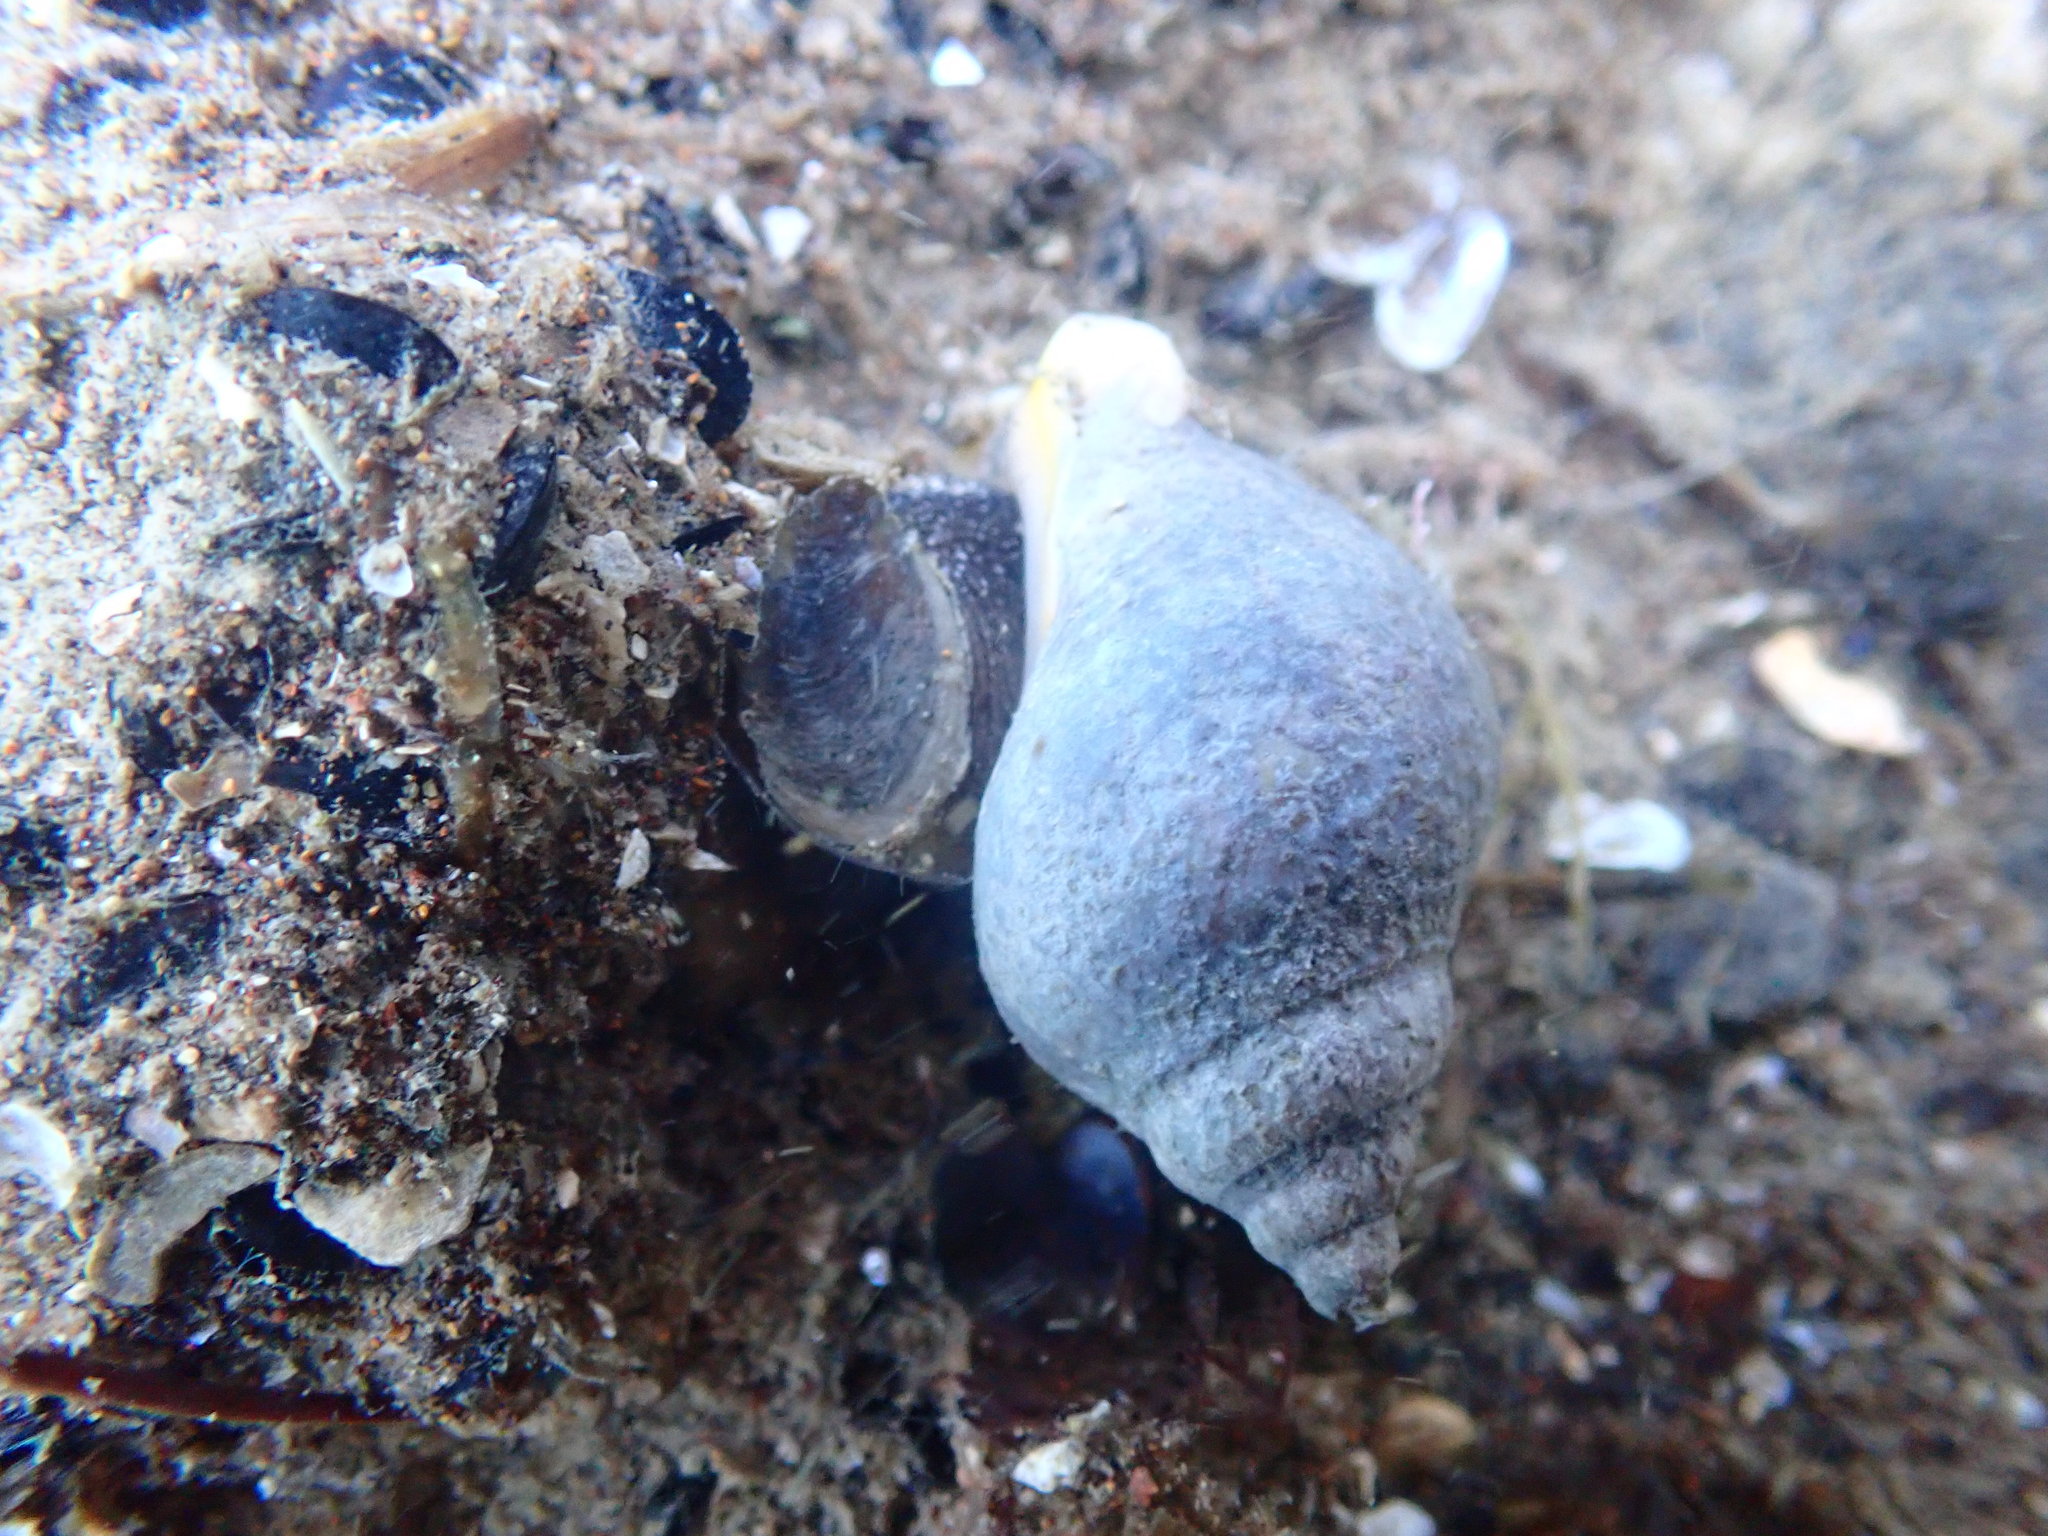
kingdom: Animalia
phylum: Mollusca
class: Gastropoda
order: Neogastropoda
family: Cominellidae
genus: Cominella
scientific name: Cominella maculosa
